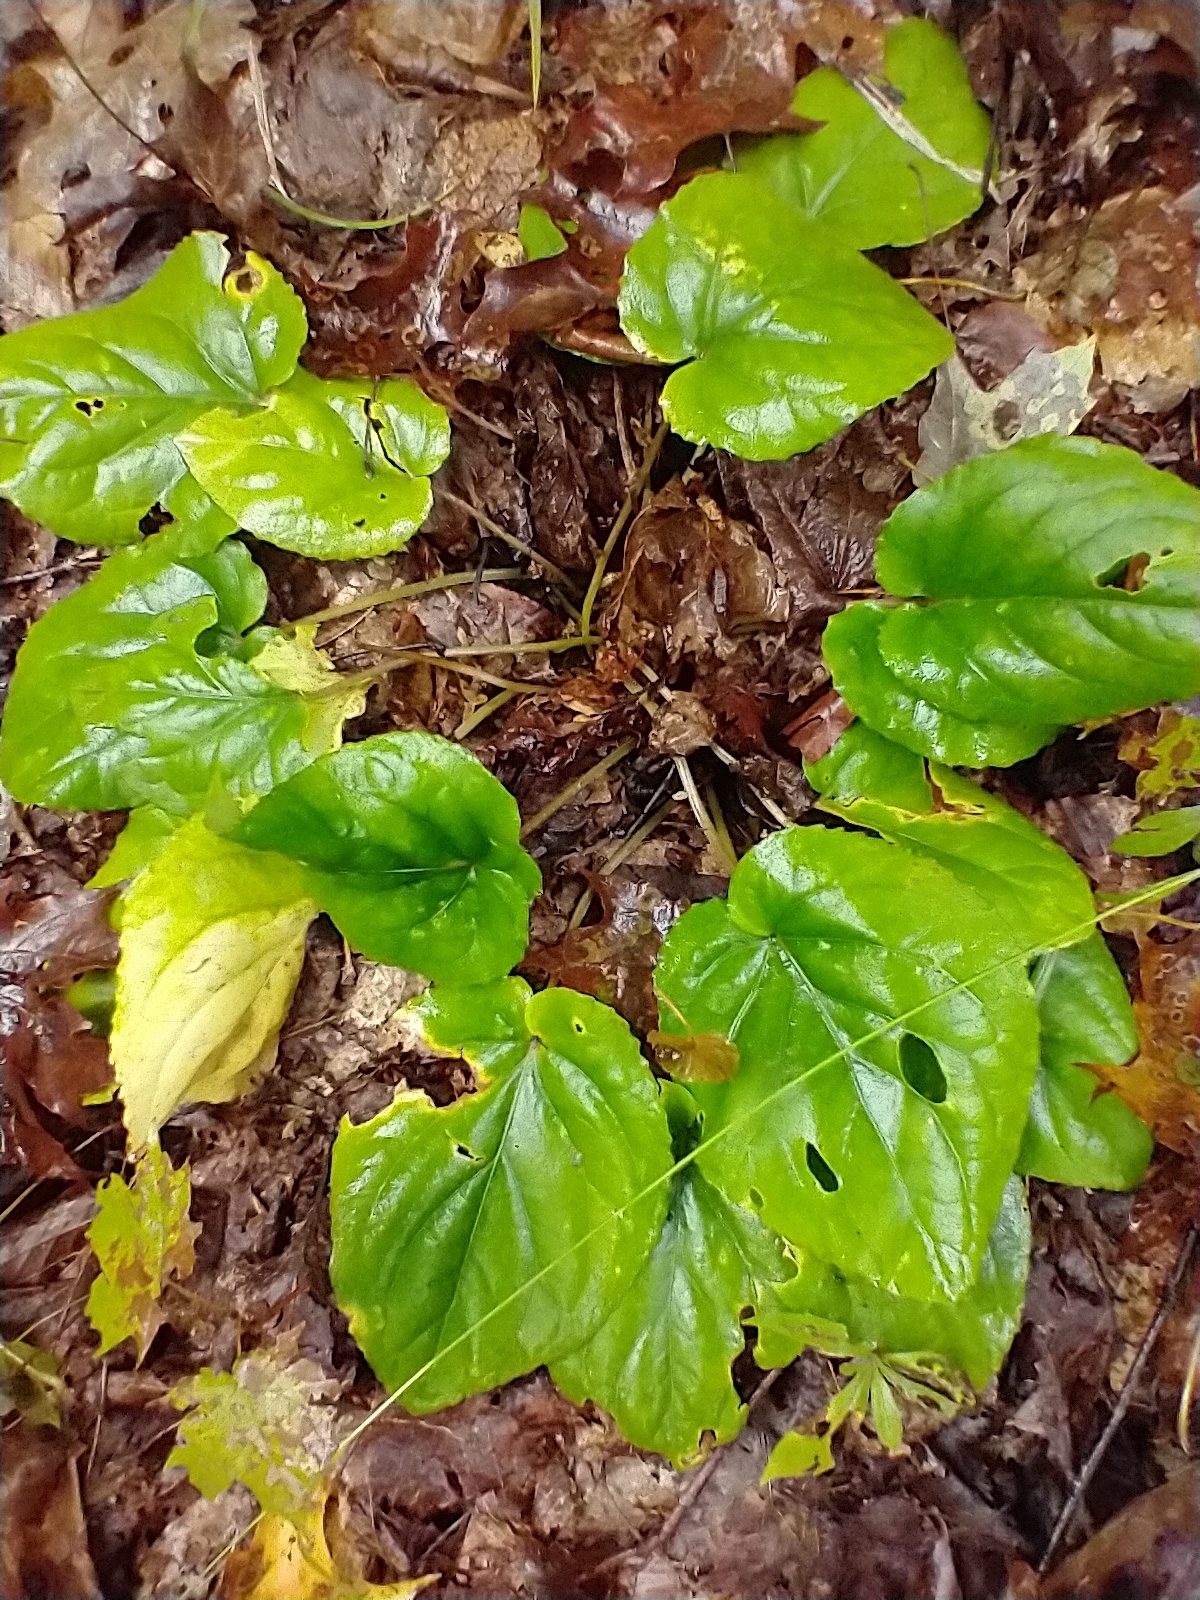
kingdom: Plantae
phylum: Tracheophyta
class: Magnoliopsida
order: Malpighiales
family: Violaceae
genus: Viola
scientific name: Viola rotundifolia
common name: Early yellow violet
